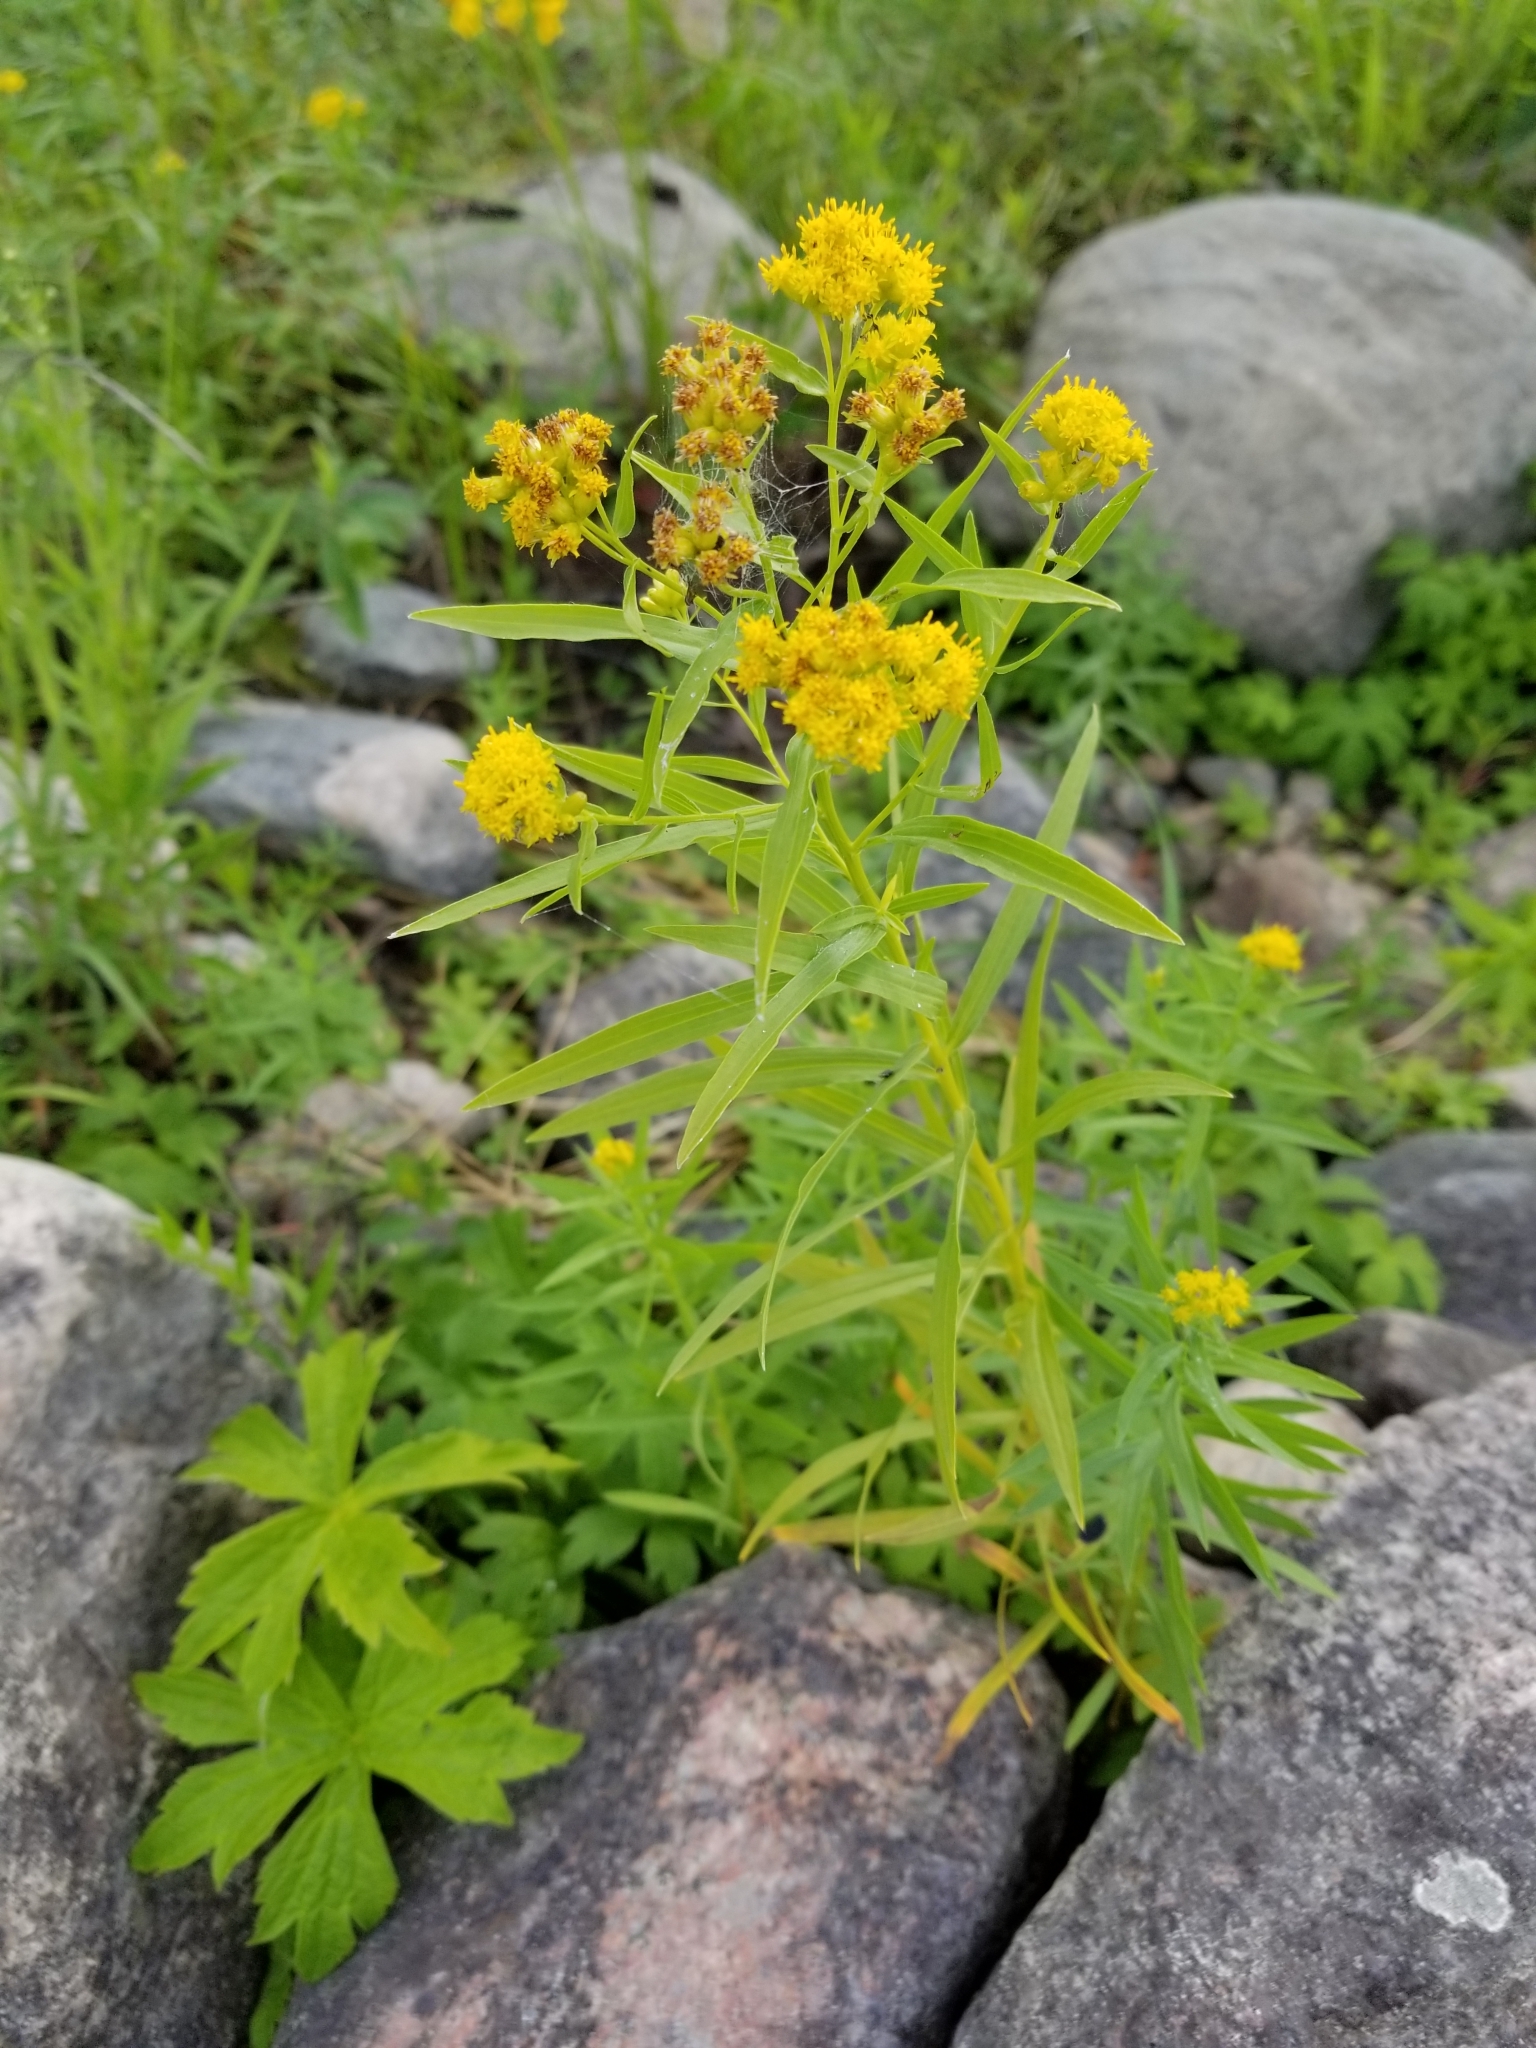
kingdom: Plantae
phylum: Tracheophyta
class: Magnoliopsida
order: Asterales
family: Asteraceae
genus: Euthamia
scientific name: Euthamia graminifolia
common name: Common goldentop
